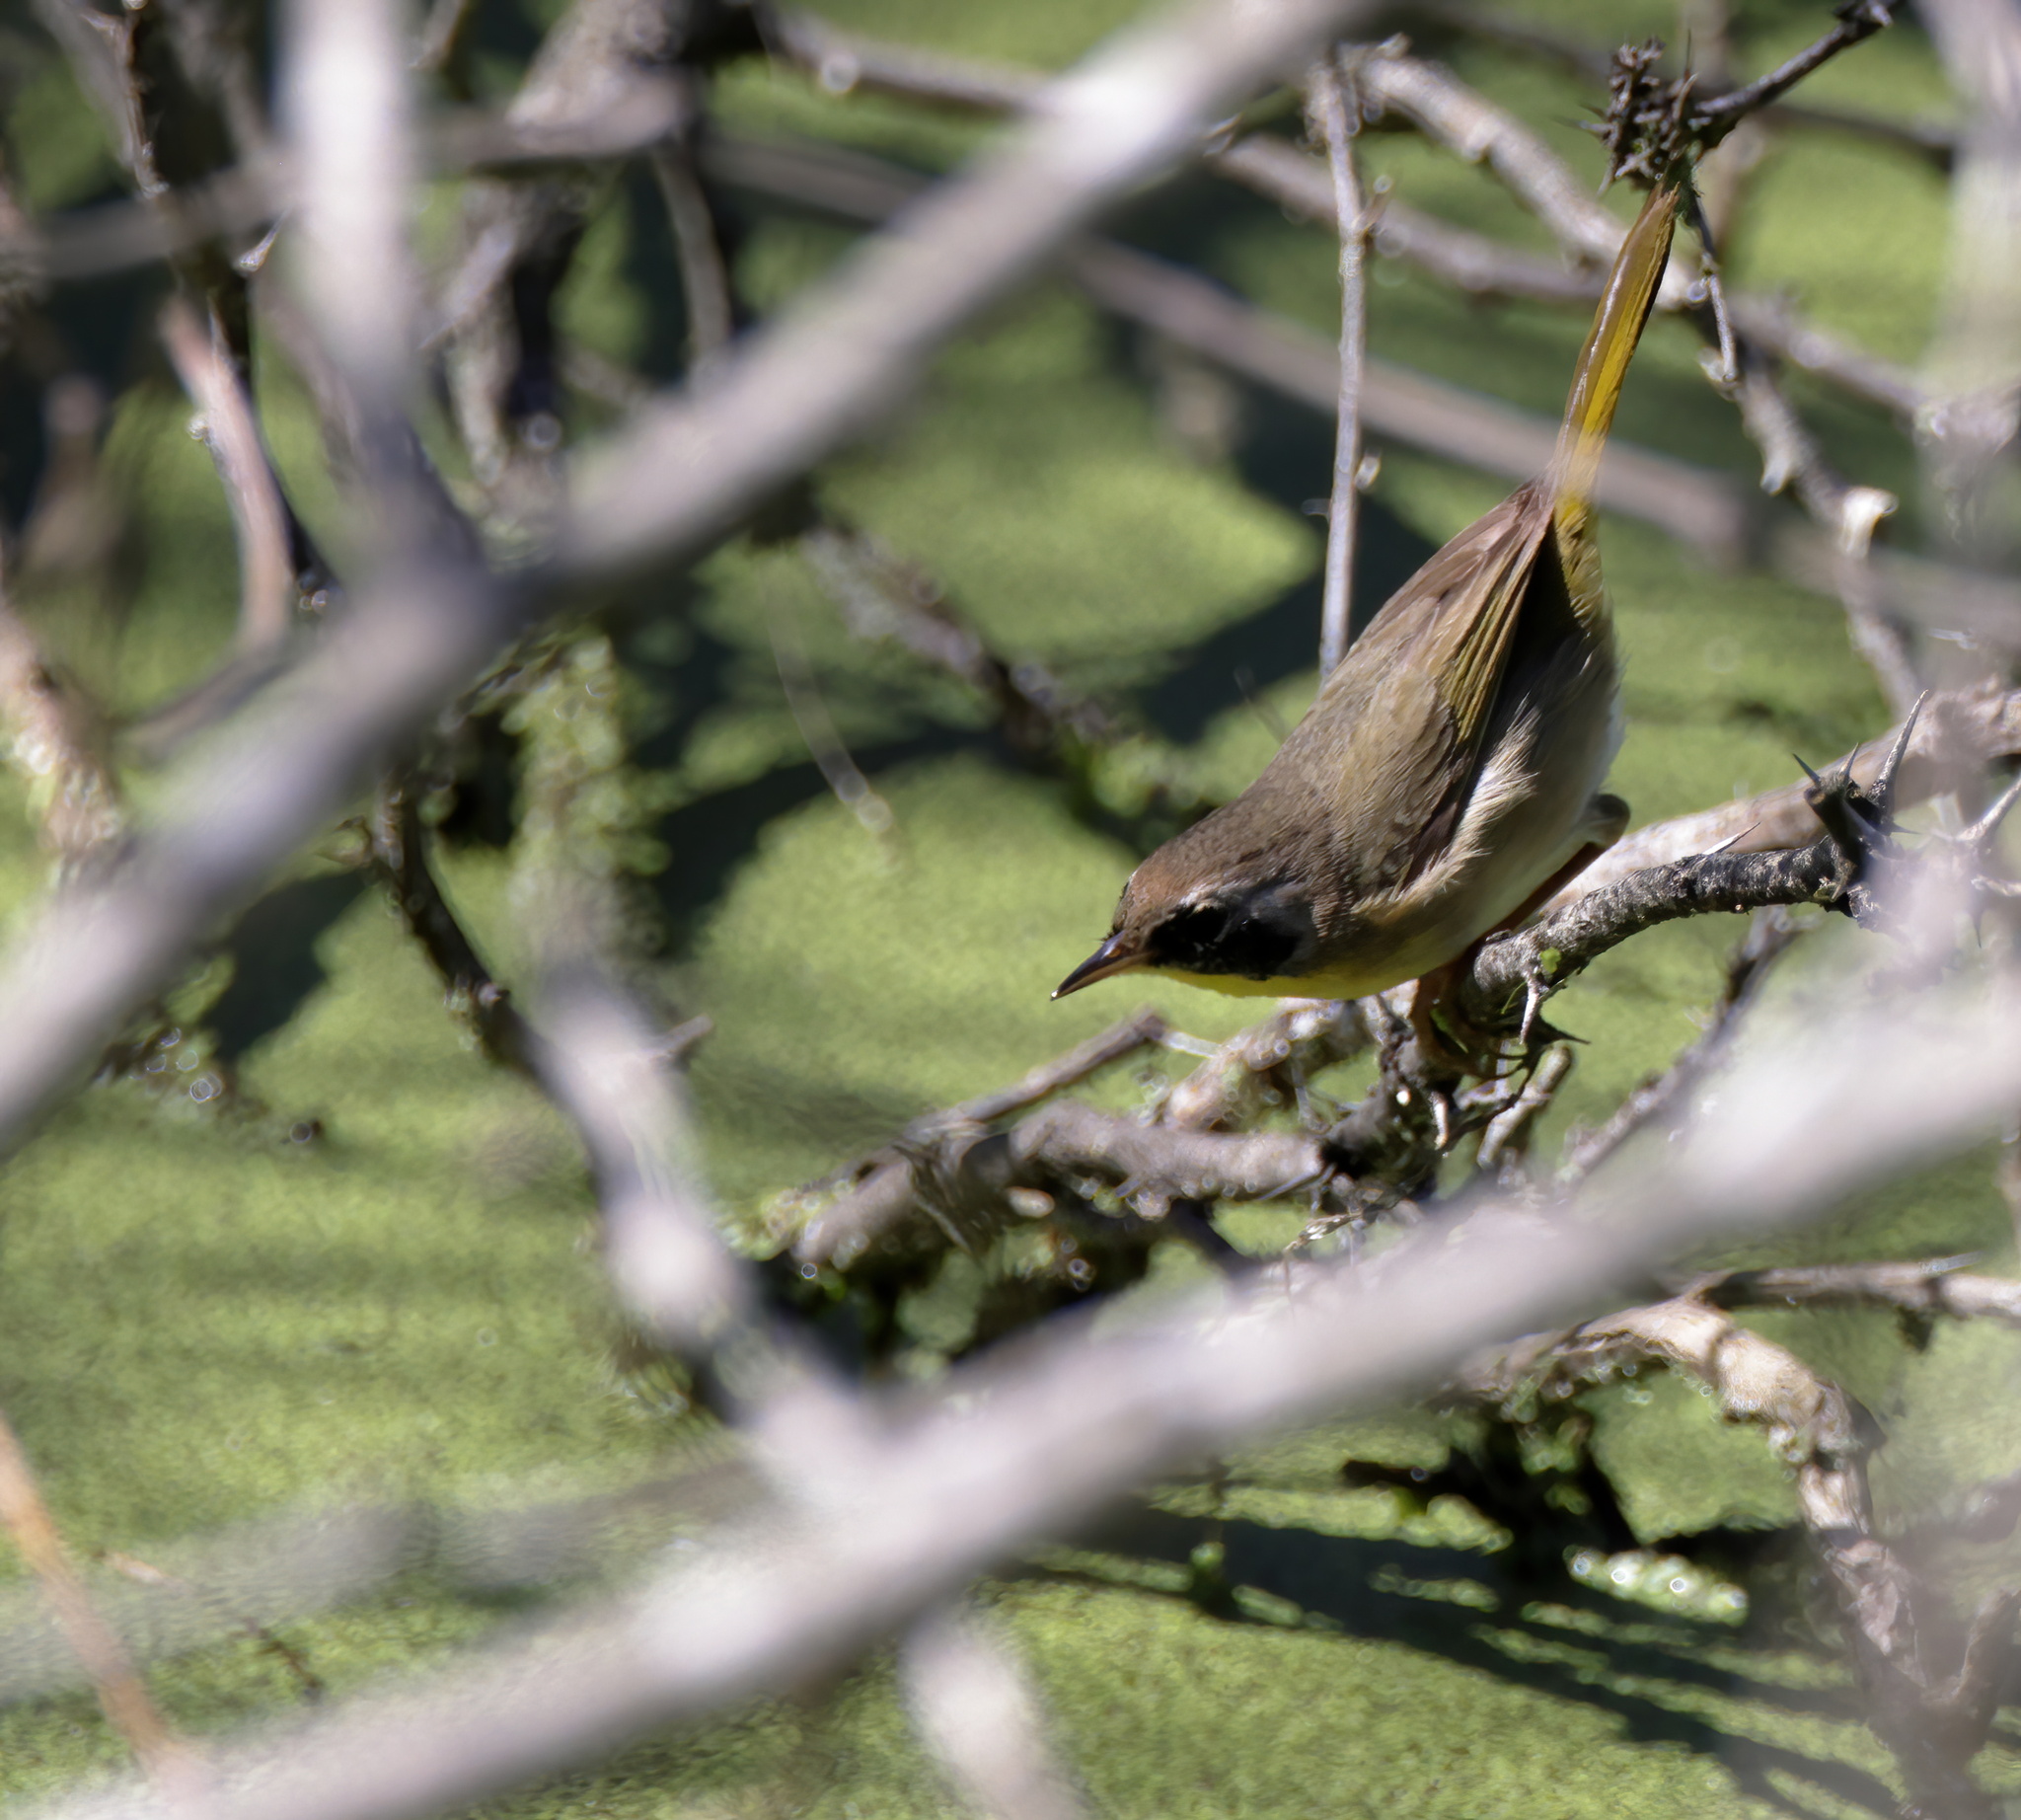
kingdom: Animalia
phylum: Chordata
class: Aves
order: Passeriformes
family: Parulidae
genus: Geothlypis
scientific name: Geothlypis trichas
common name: Common yellowthroat
